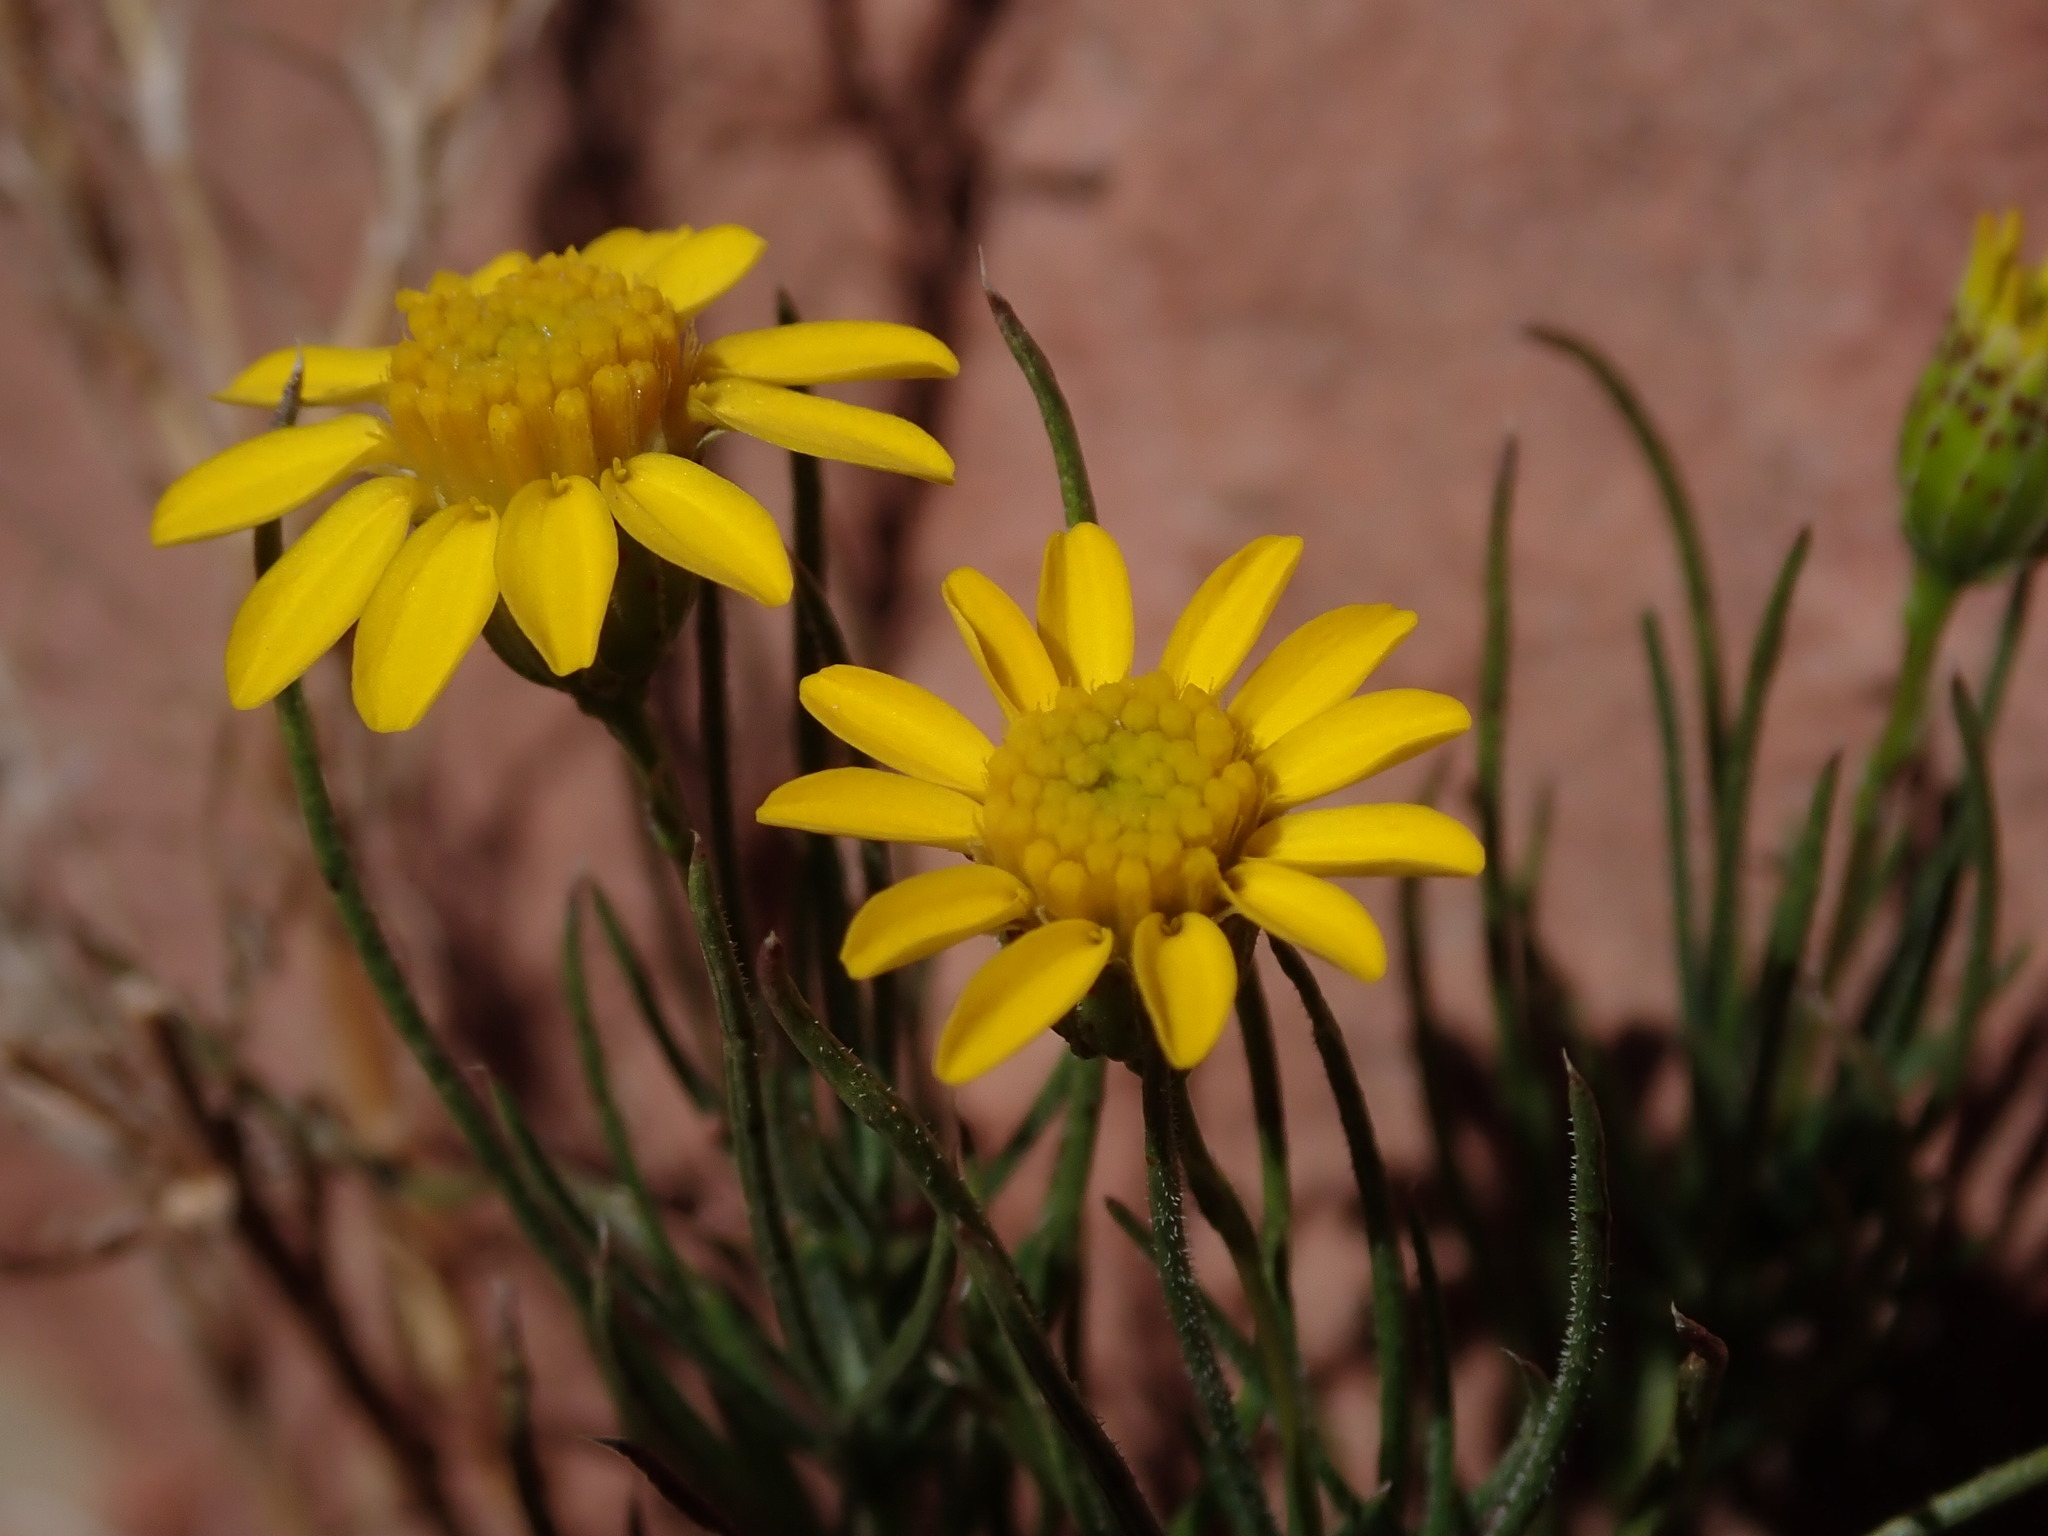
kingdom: Plantae
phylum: Tracheophyta
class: Magnoliopsida
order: Asterales
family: Asteraceae
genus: Thymophylla
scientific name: Thymophylla pentachaeta
